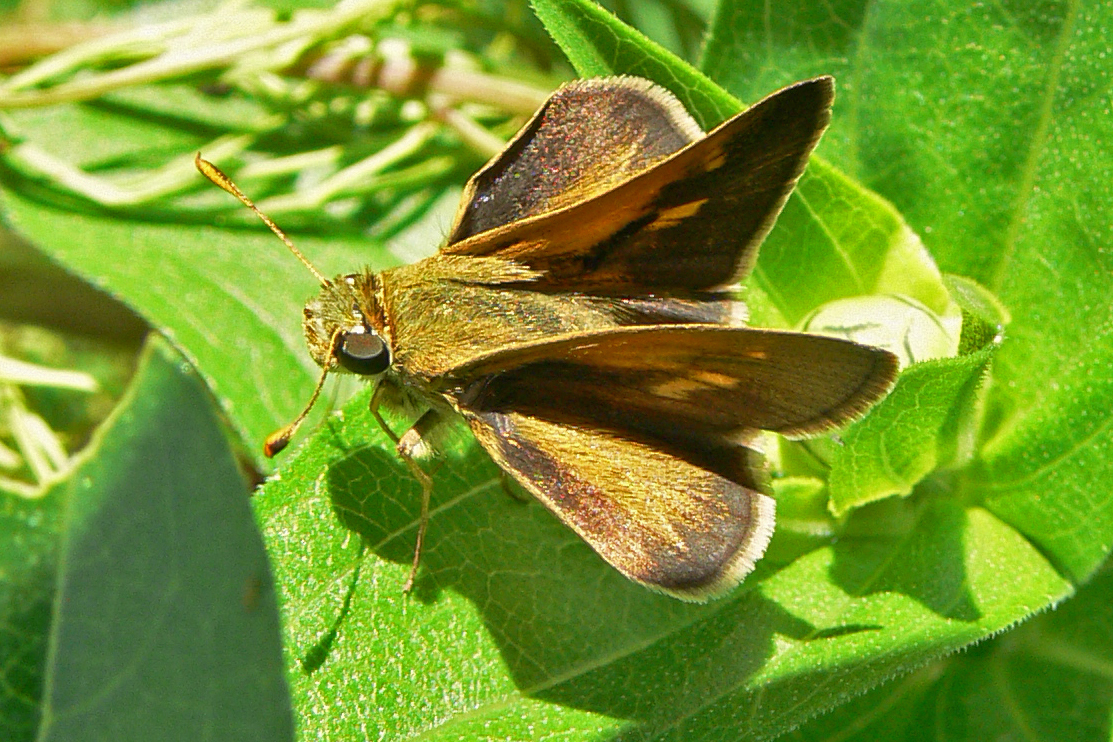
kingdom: Animalia
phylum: Arthropoda
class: Insecta
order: Lepidoptera
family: Hesperiidae
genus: Polites
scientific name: Polites themistocles
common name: Tawny-edged skipper
